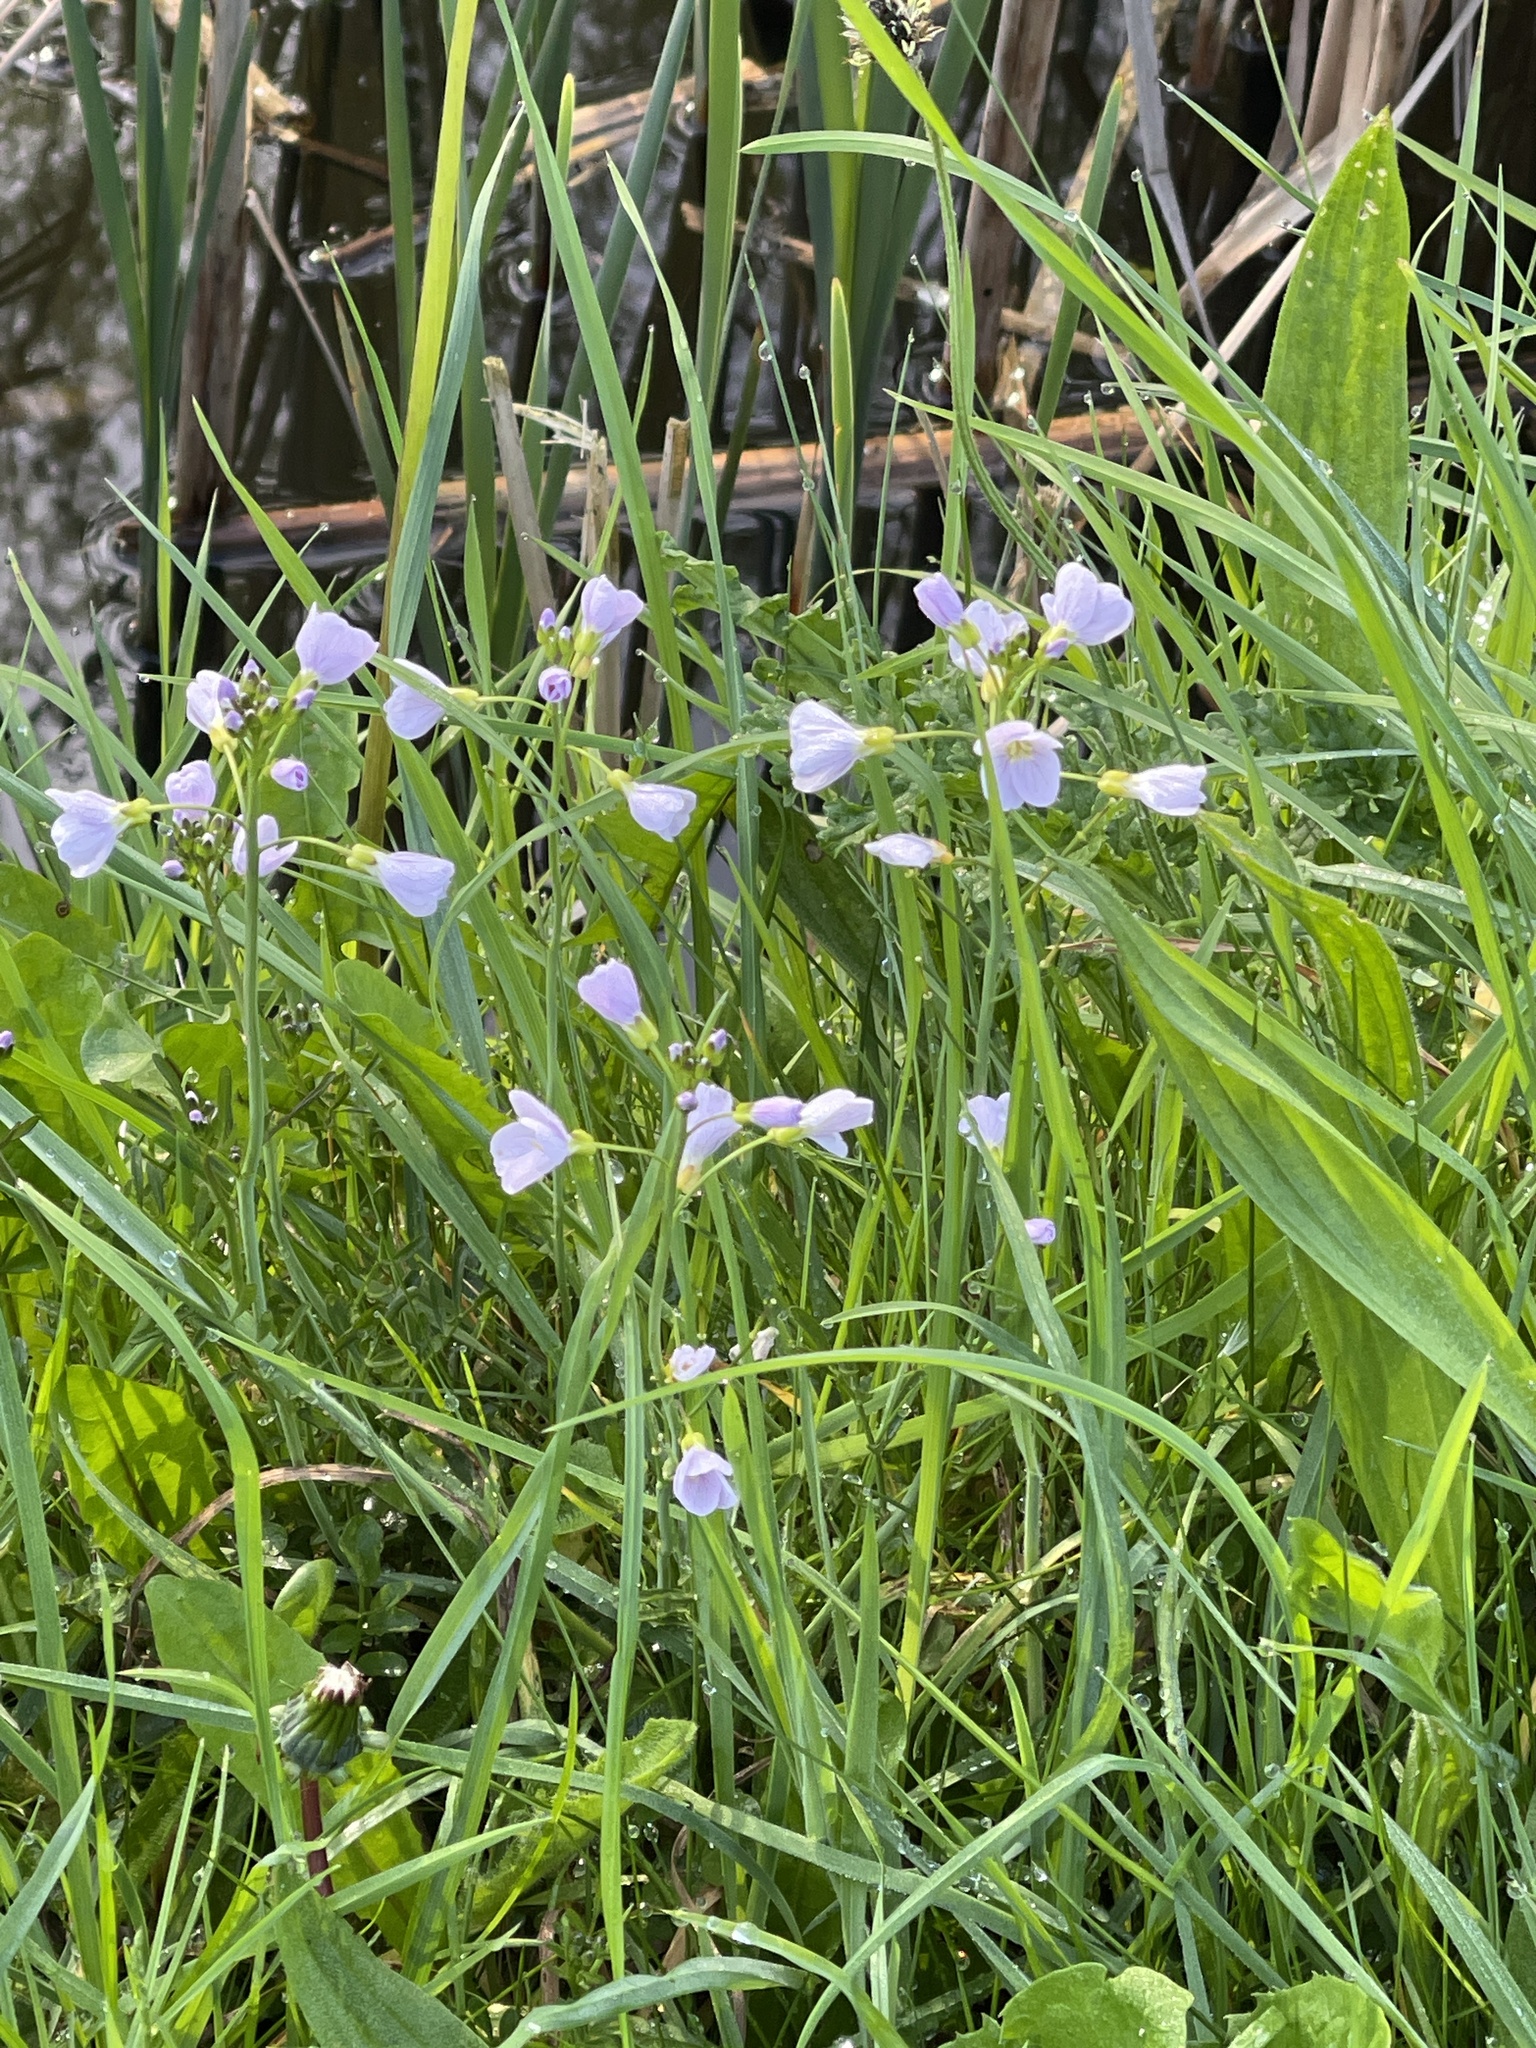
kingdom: Plantae
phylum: Tracheophyta
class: Magnoliopsida
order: Brassicales
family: Brassicaceae
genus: Cardamine
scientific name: Cardamine pratensis
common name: Cuckoo flower
